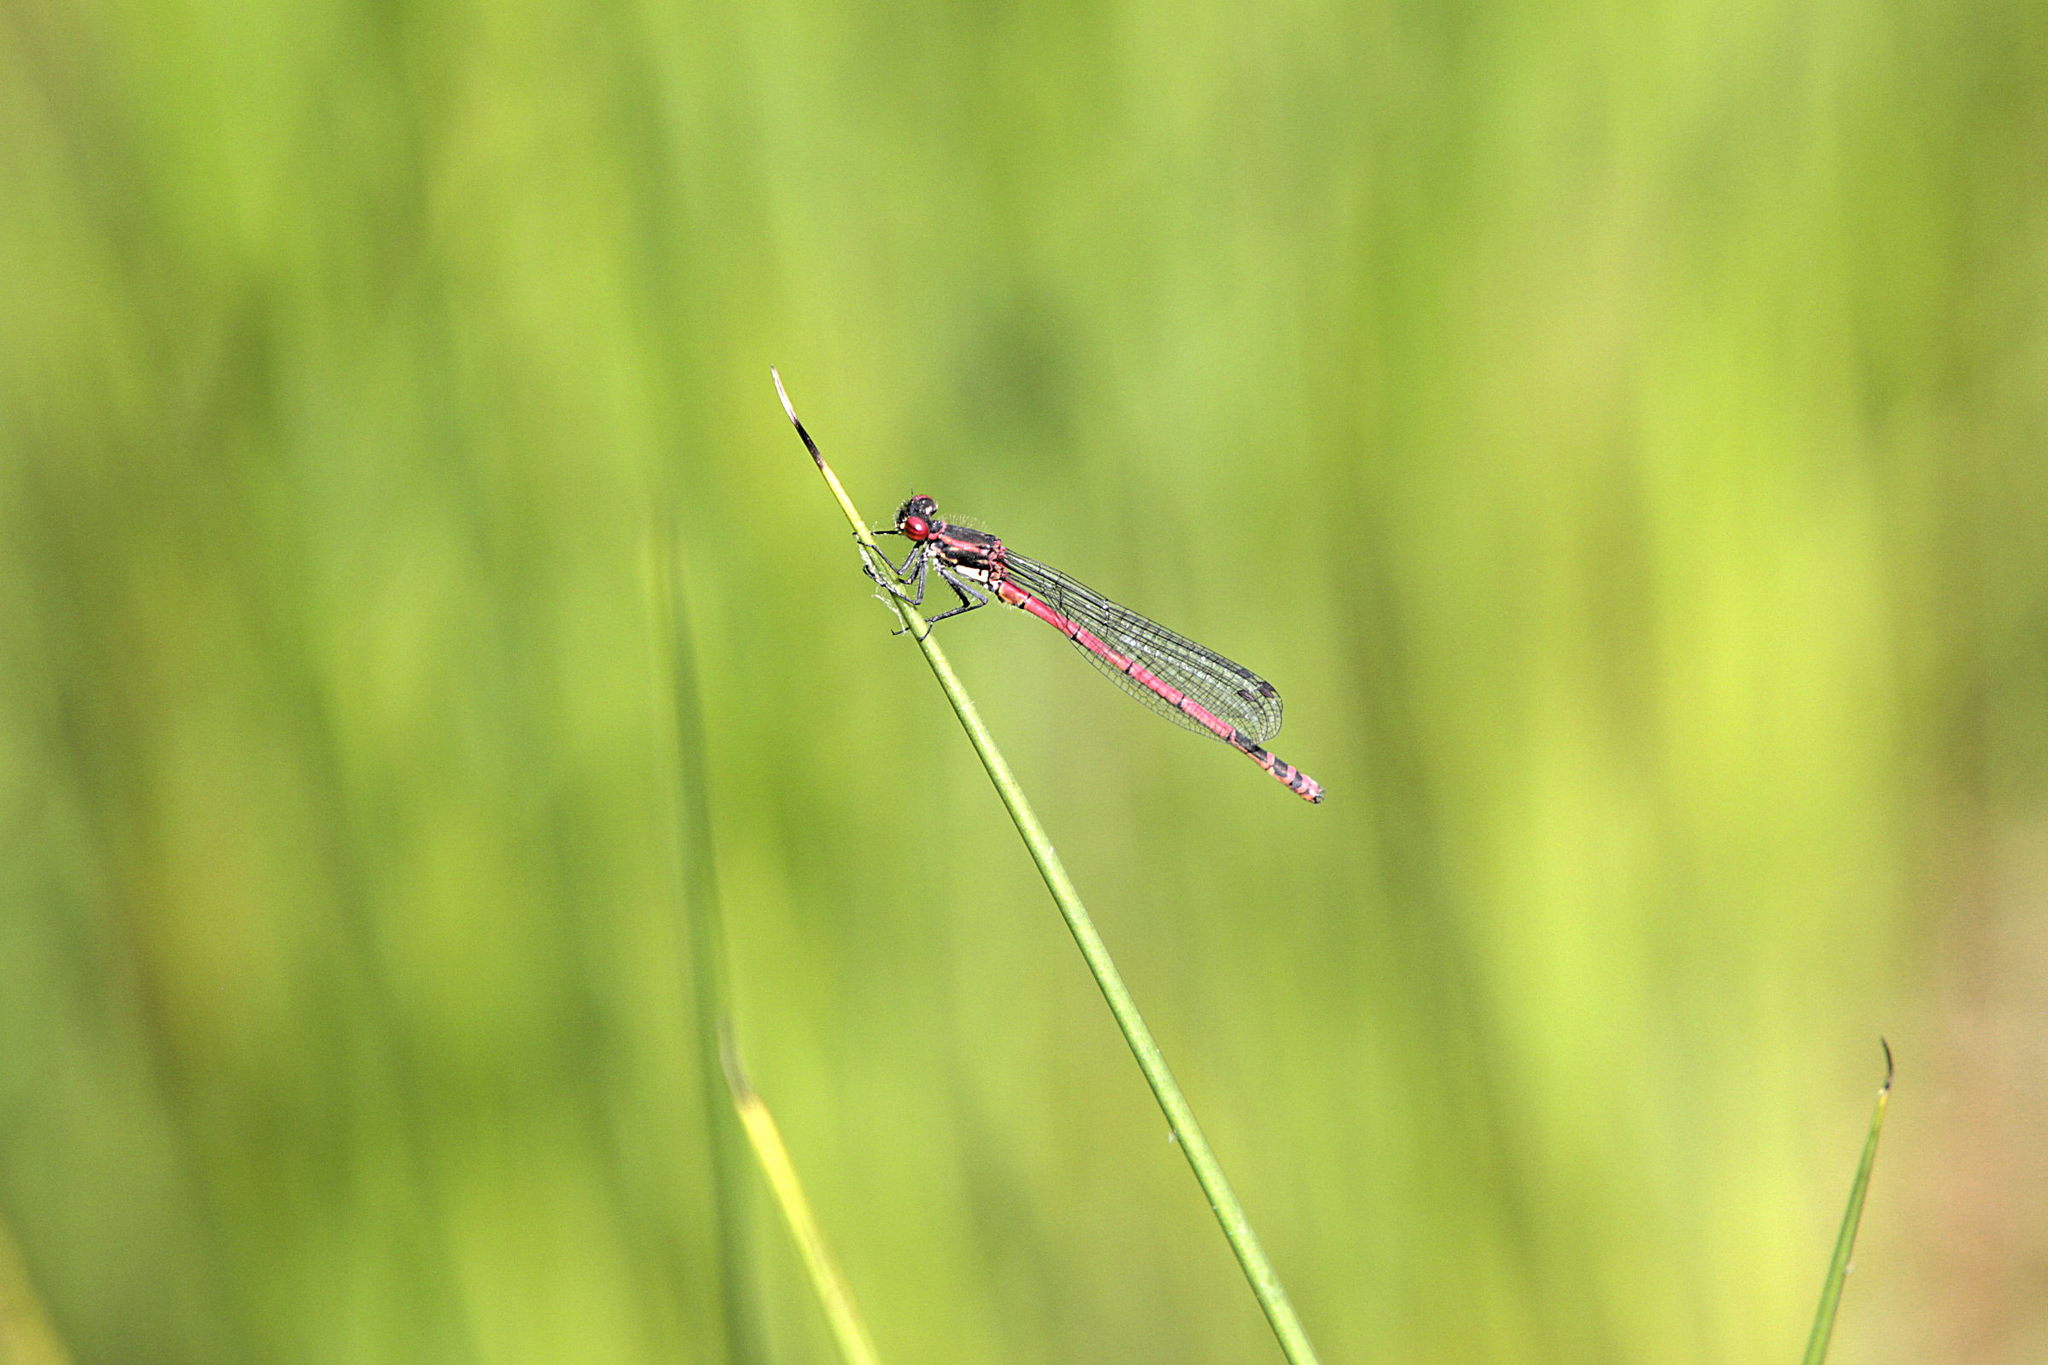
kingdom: Animalia
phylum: Arthropoda
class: Insecta
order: Odonata
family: Coenagrionidae
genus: Pyrrhosoma
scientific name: Pyrrhosoma nymphula
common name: Large red damsel
